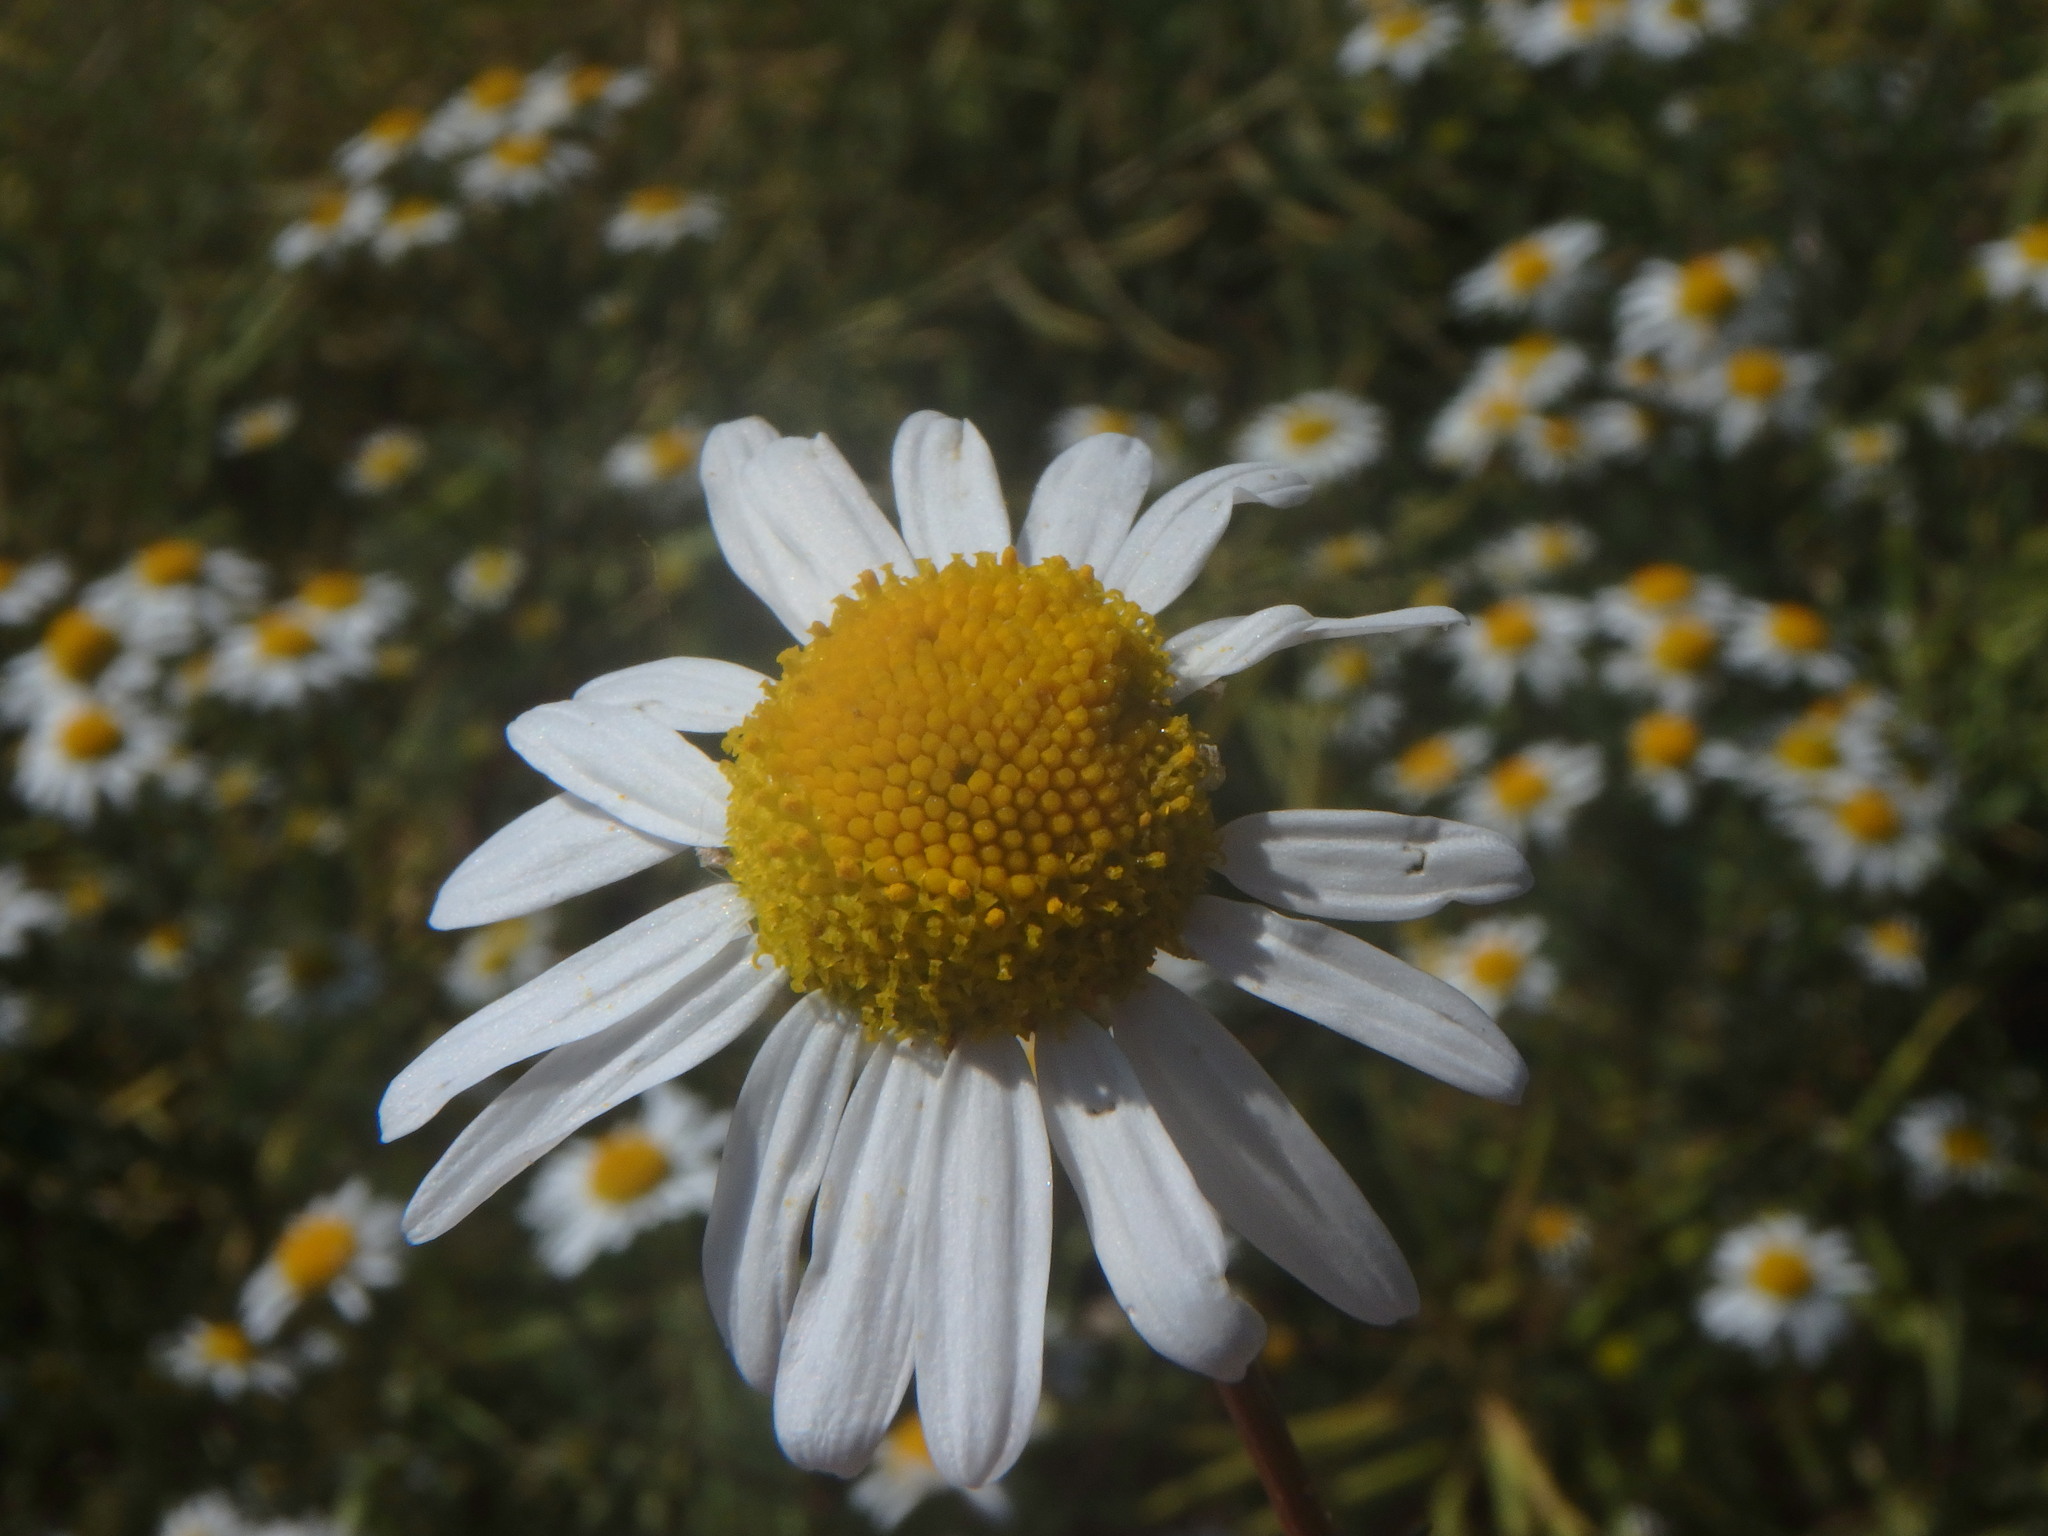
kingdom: Plantae
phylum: Tracheophyta
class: Magnoliopsida
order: Asterales
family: Asteraceae
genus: Tripleurospermum
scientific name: Tripleurospermum inodorum
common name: Scentless mayweed
